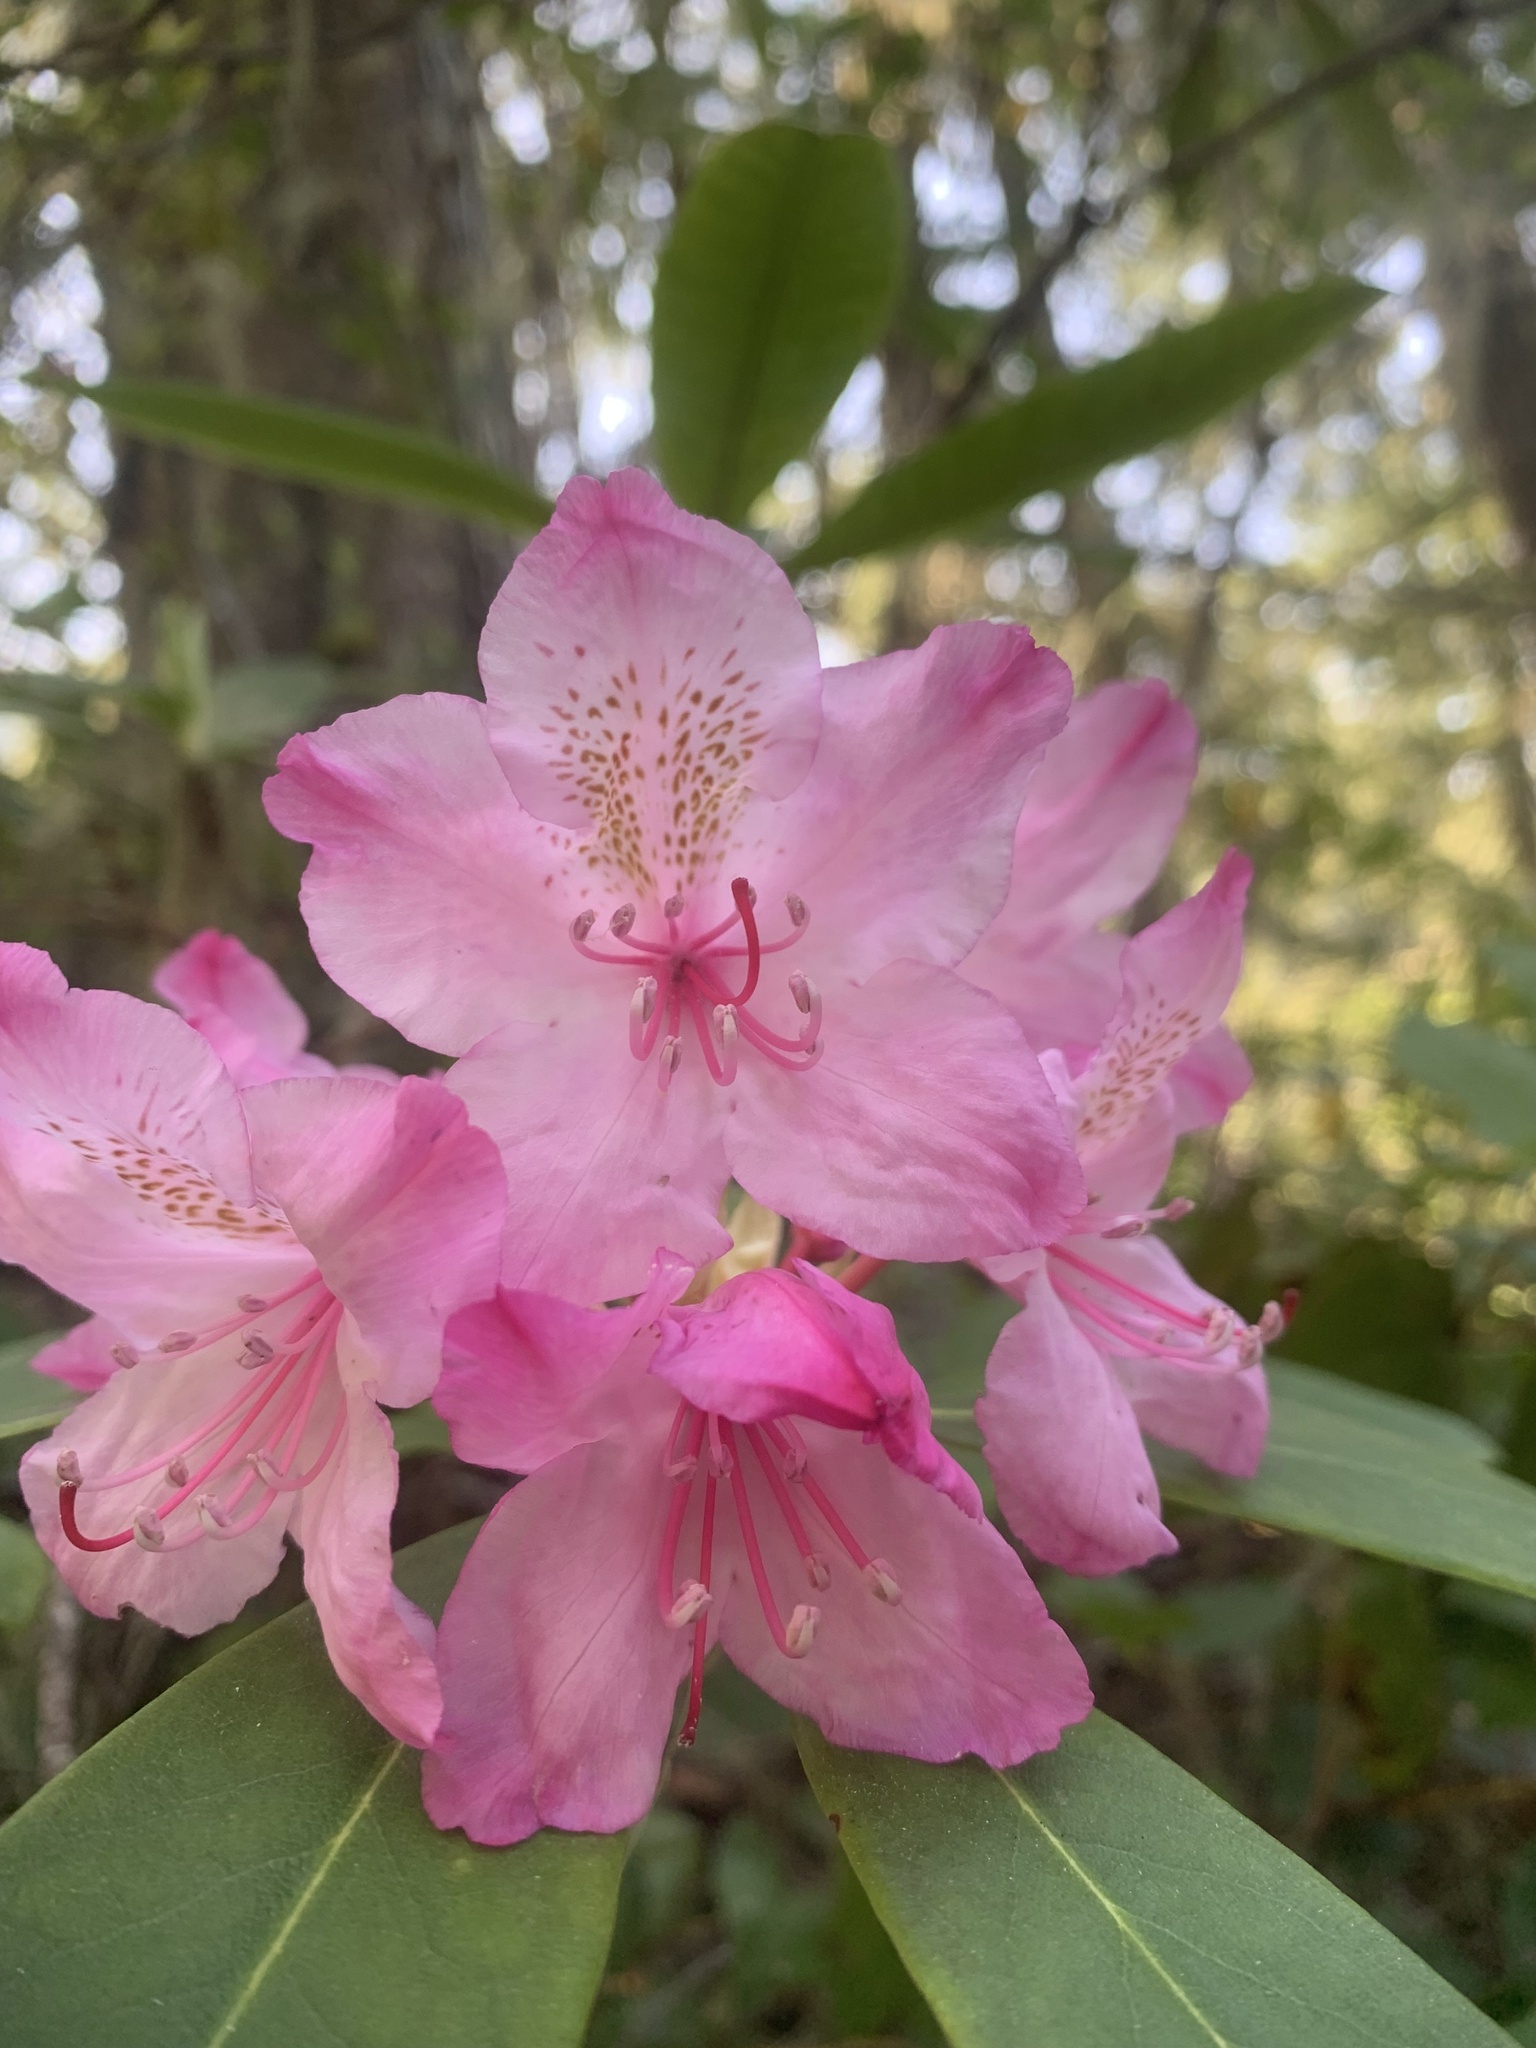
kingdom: Plantae
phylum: Tracheophyta
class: Magnoliopsida
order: Ericales
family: Ericaceae
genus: Rhododendron
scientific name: Rhododendron macrophyllum
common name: California rose bay
